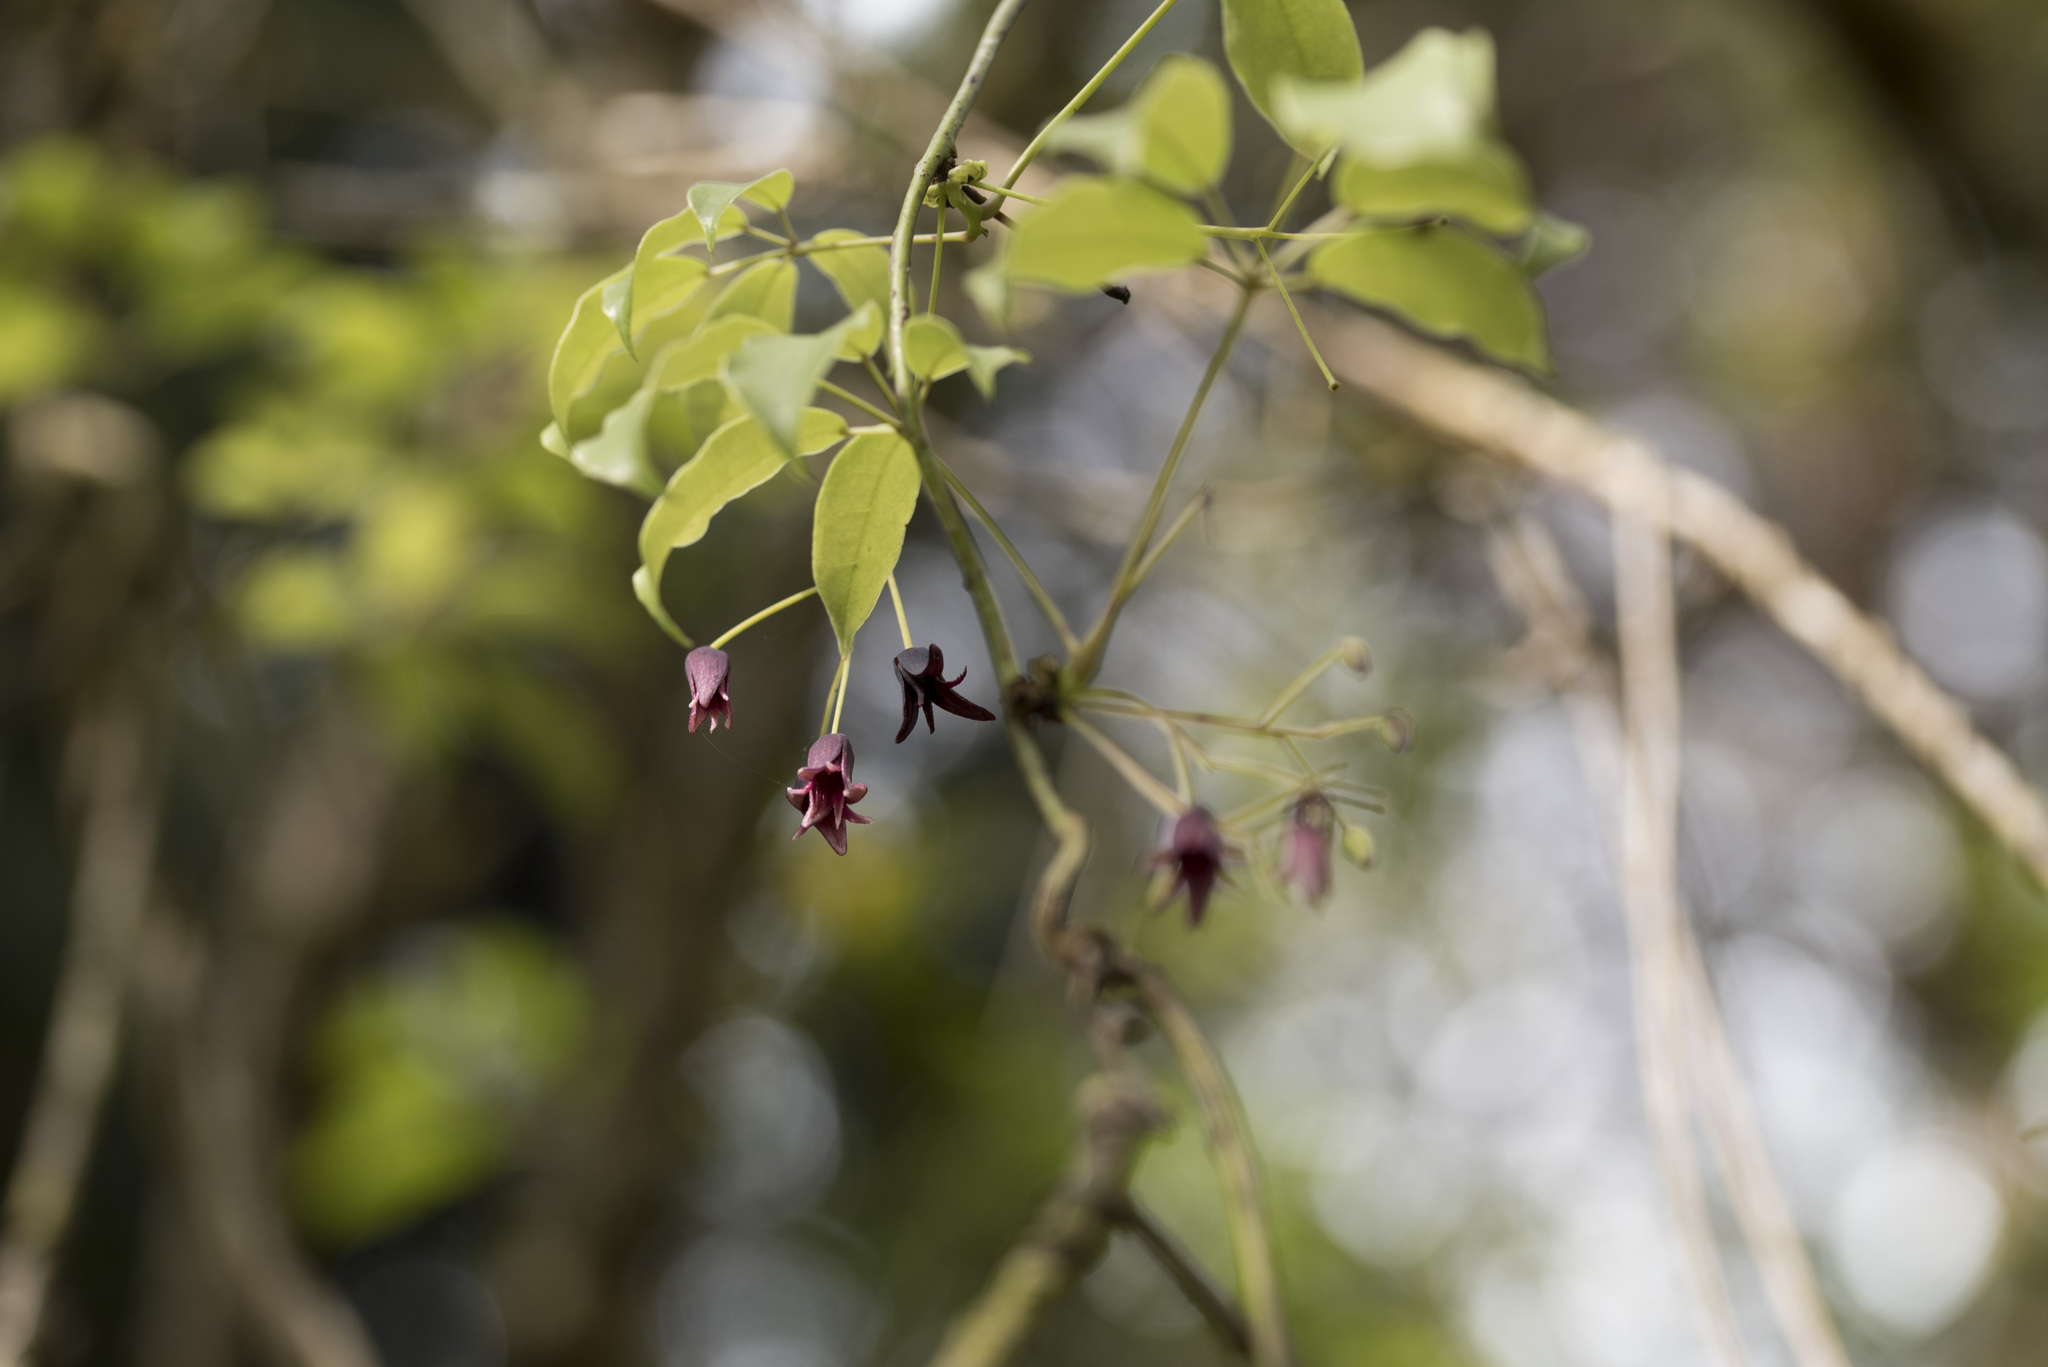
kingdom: Plantae
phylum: Tracheophyta
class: Magnoliopsida
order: Ranunculales
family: Lardizabalaceae
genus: Stauntonia
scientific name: Stauntonia purpurea
